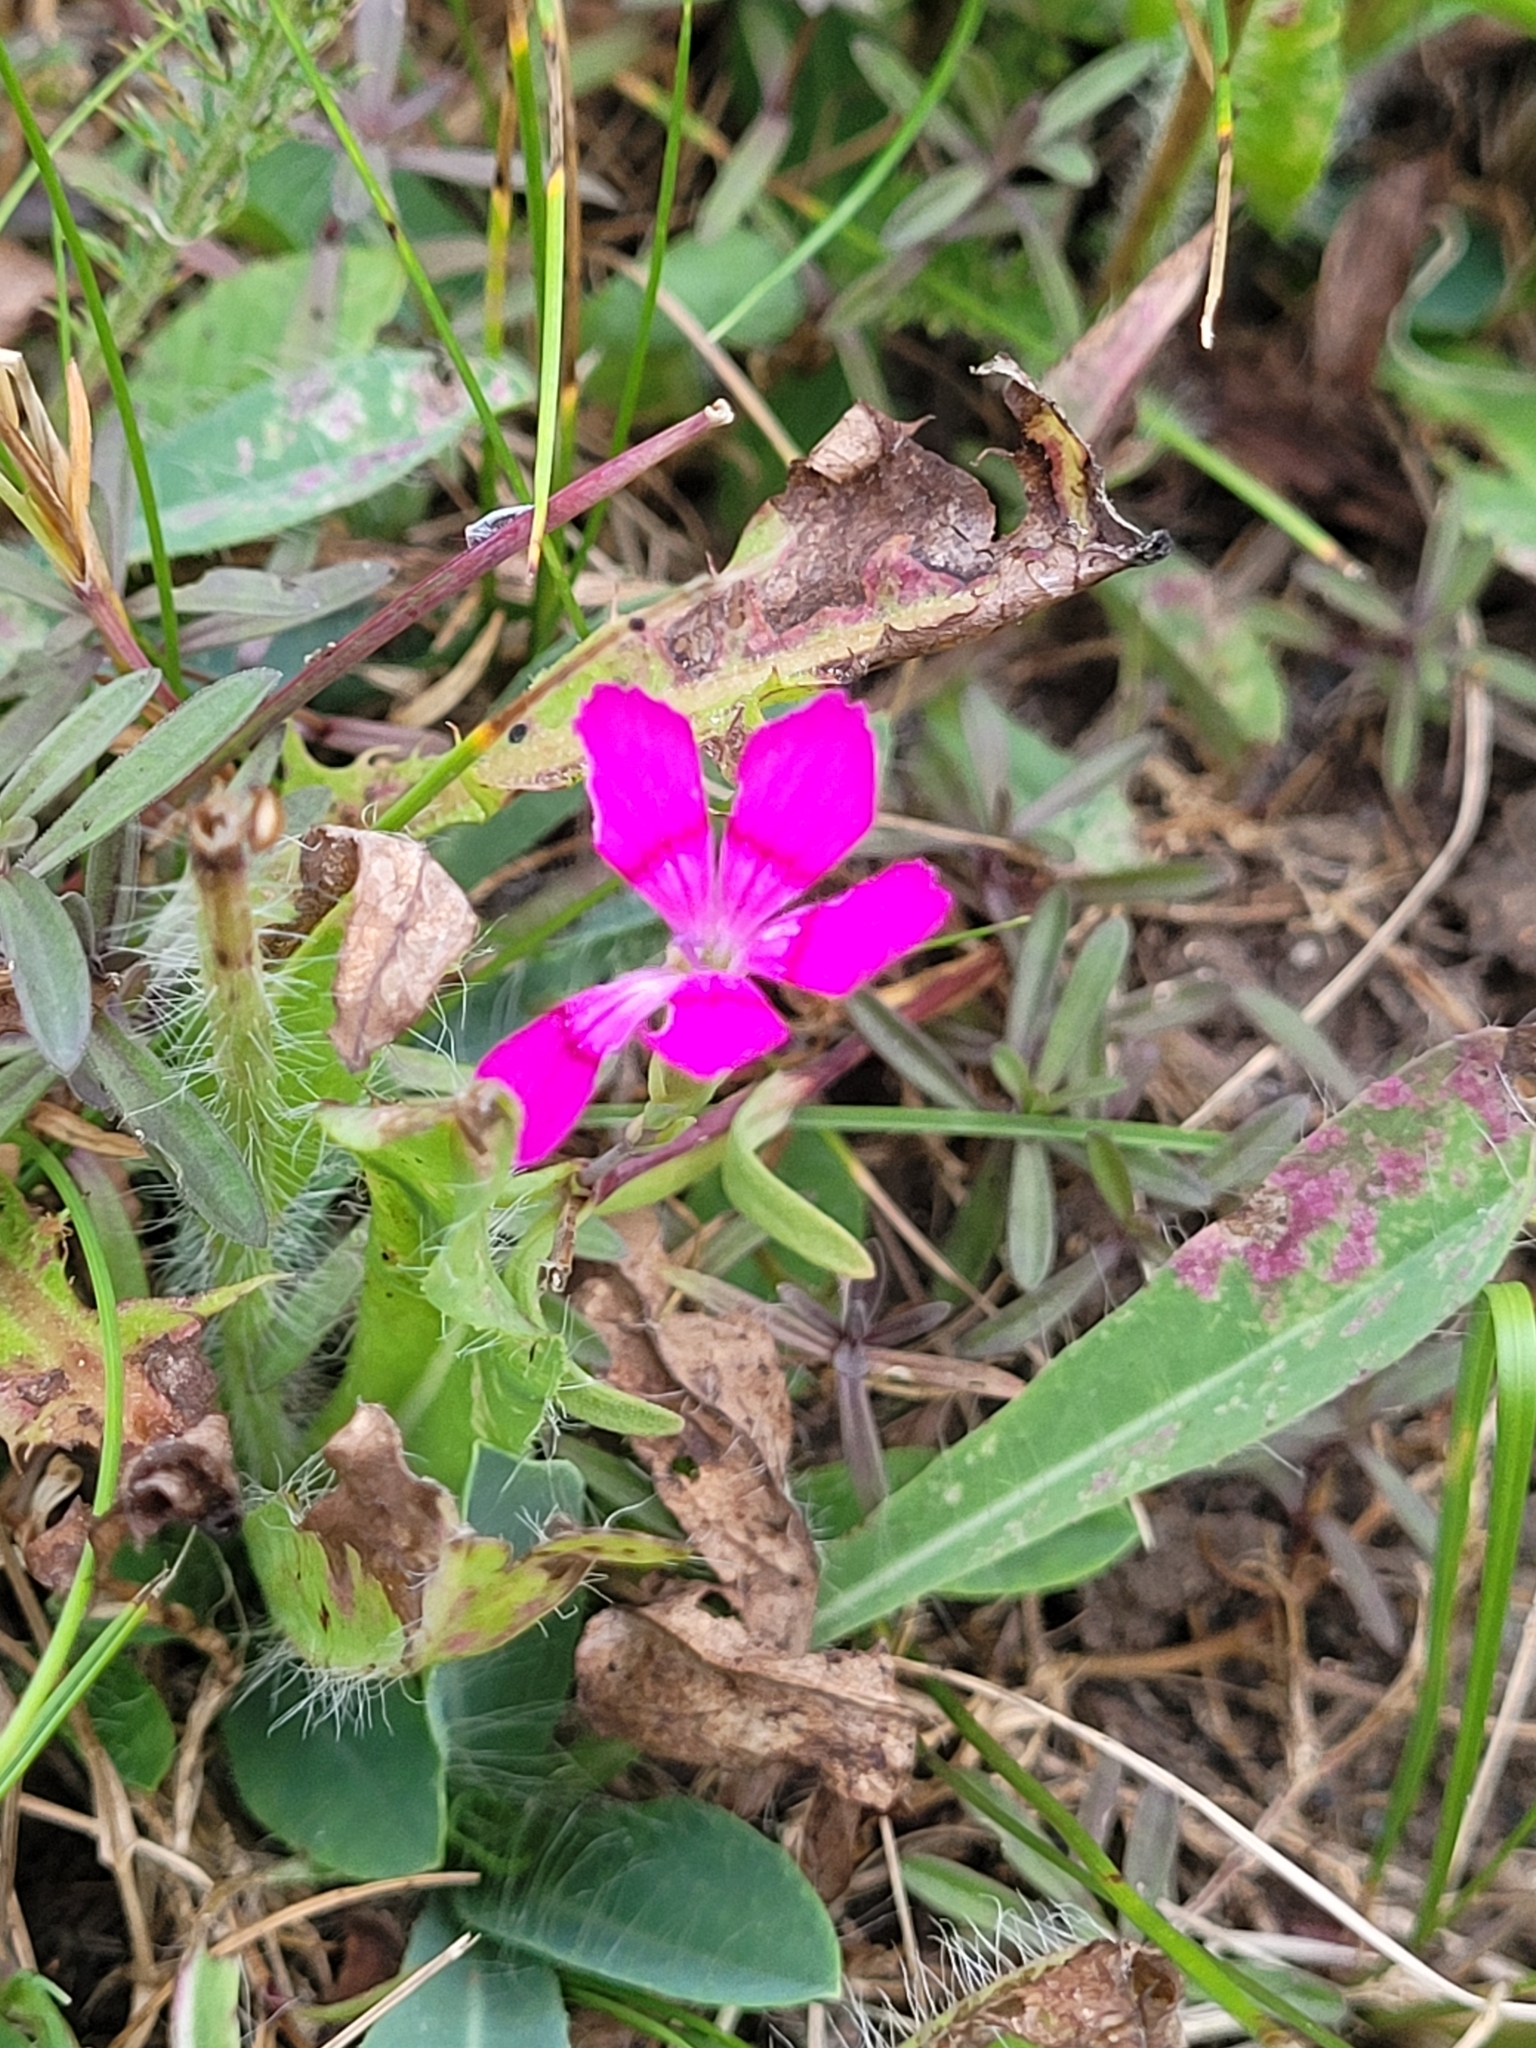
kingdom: Plantae
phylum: Tracheophyta
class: Magnoliopsida
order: Caryophyllales
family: Caryophyllaceae
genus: Dianthus
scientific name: Dianthus deltoides
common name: Maiden pink
